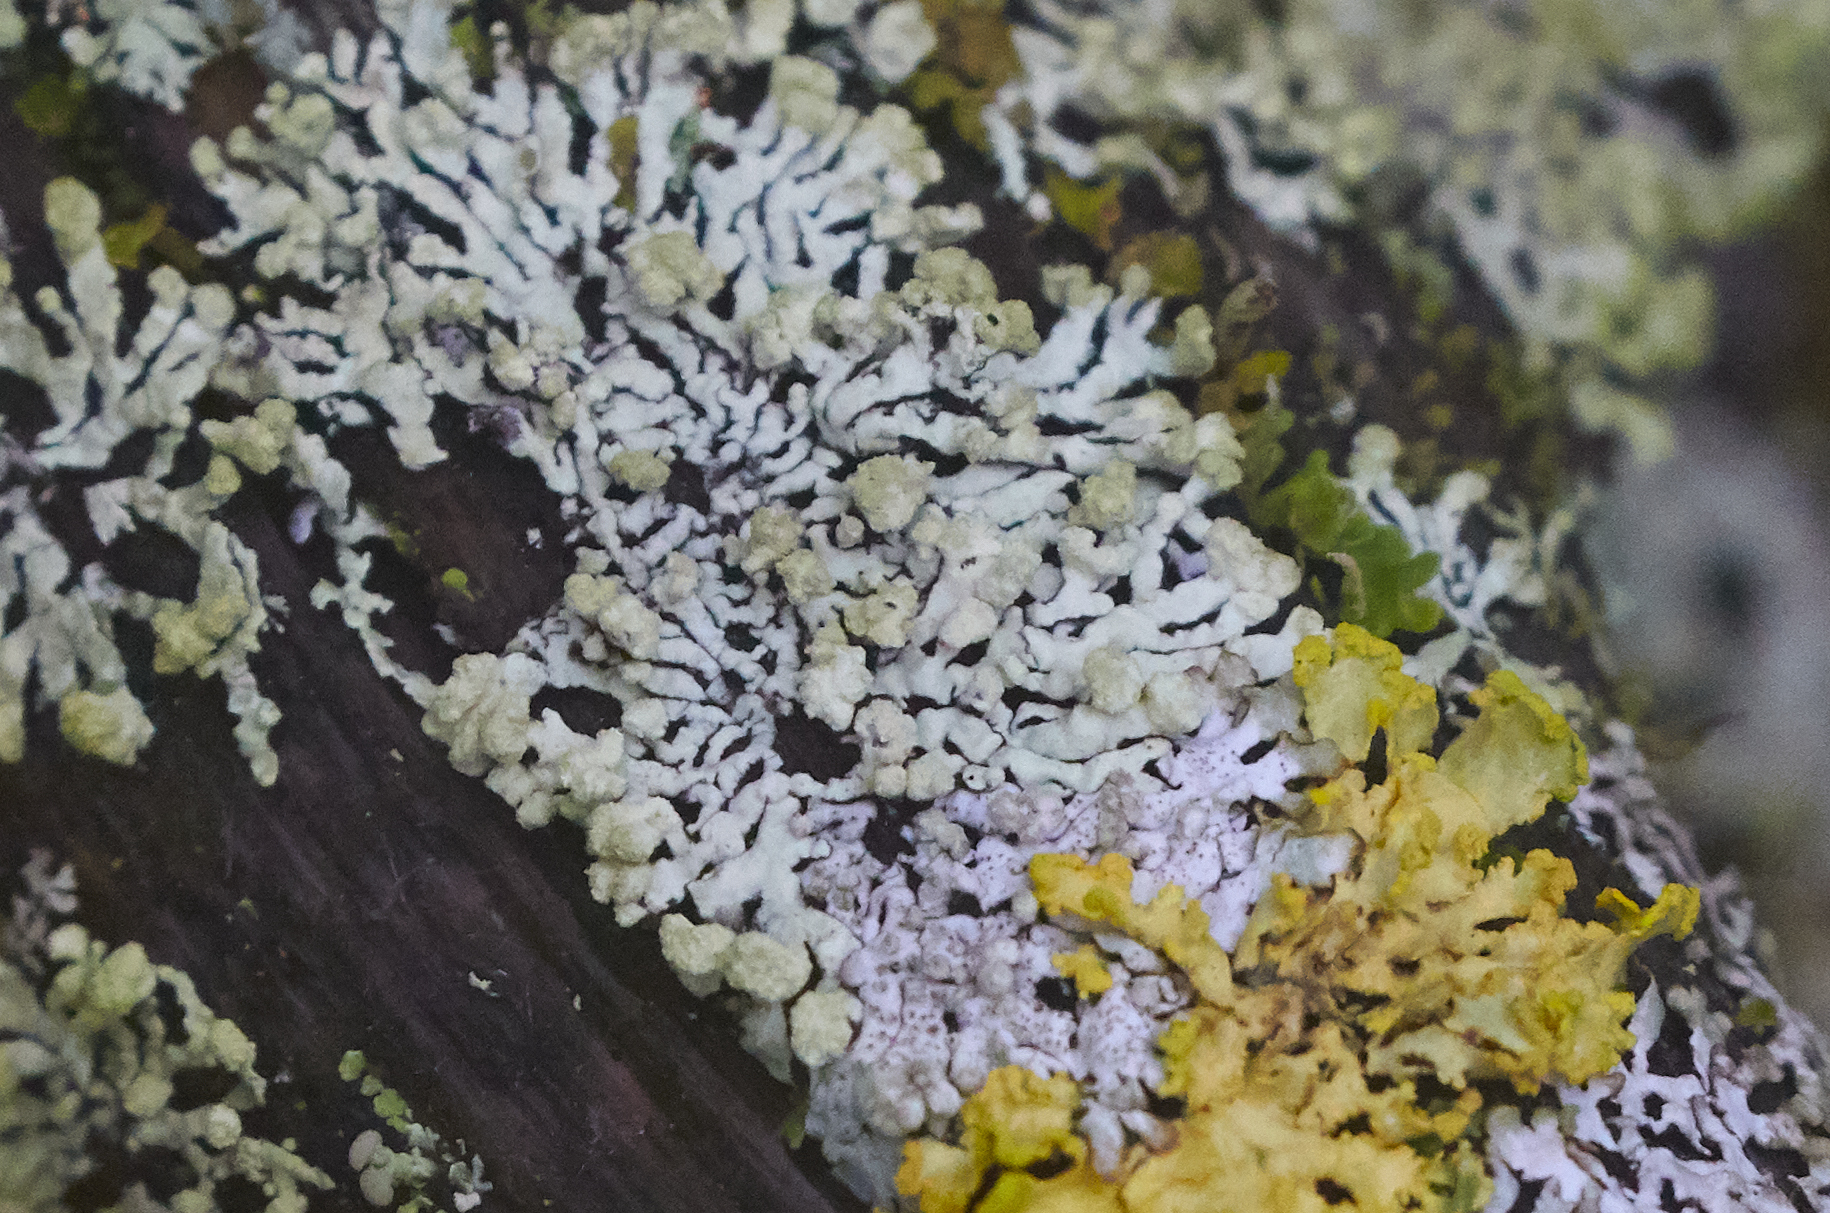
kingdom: Fungi
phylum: Ascomycota
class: Lecanoromycetes
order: Lecanorales
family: Parmeliaceae
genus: Parmeliopsis
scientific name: Parmeliopsis
